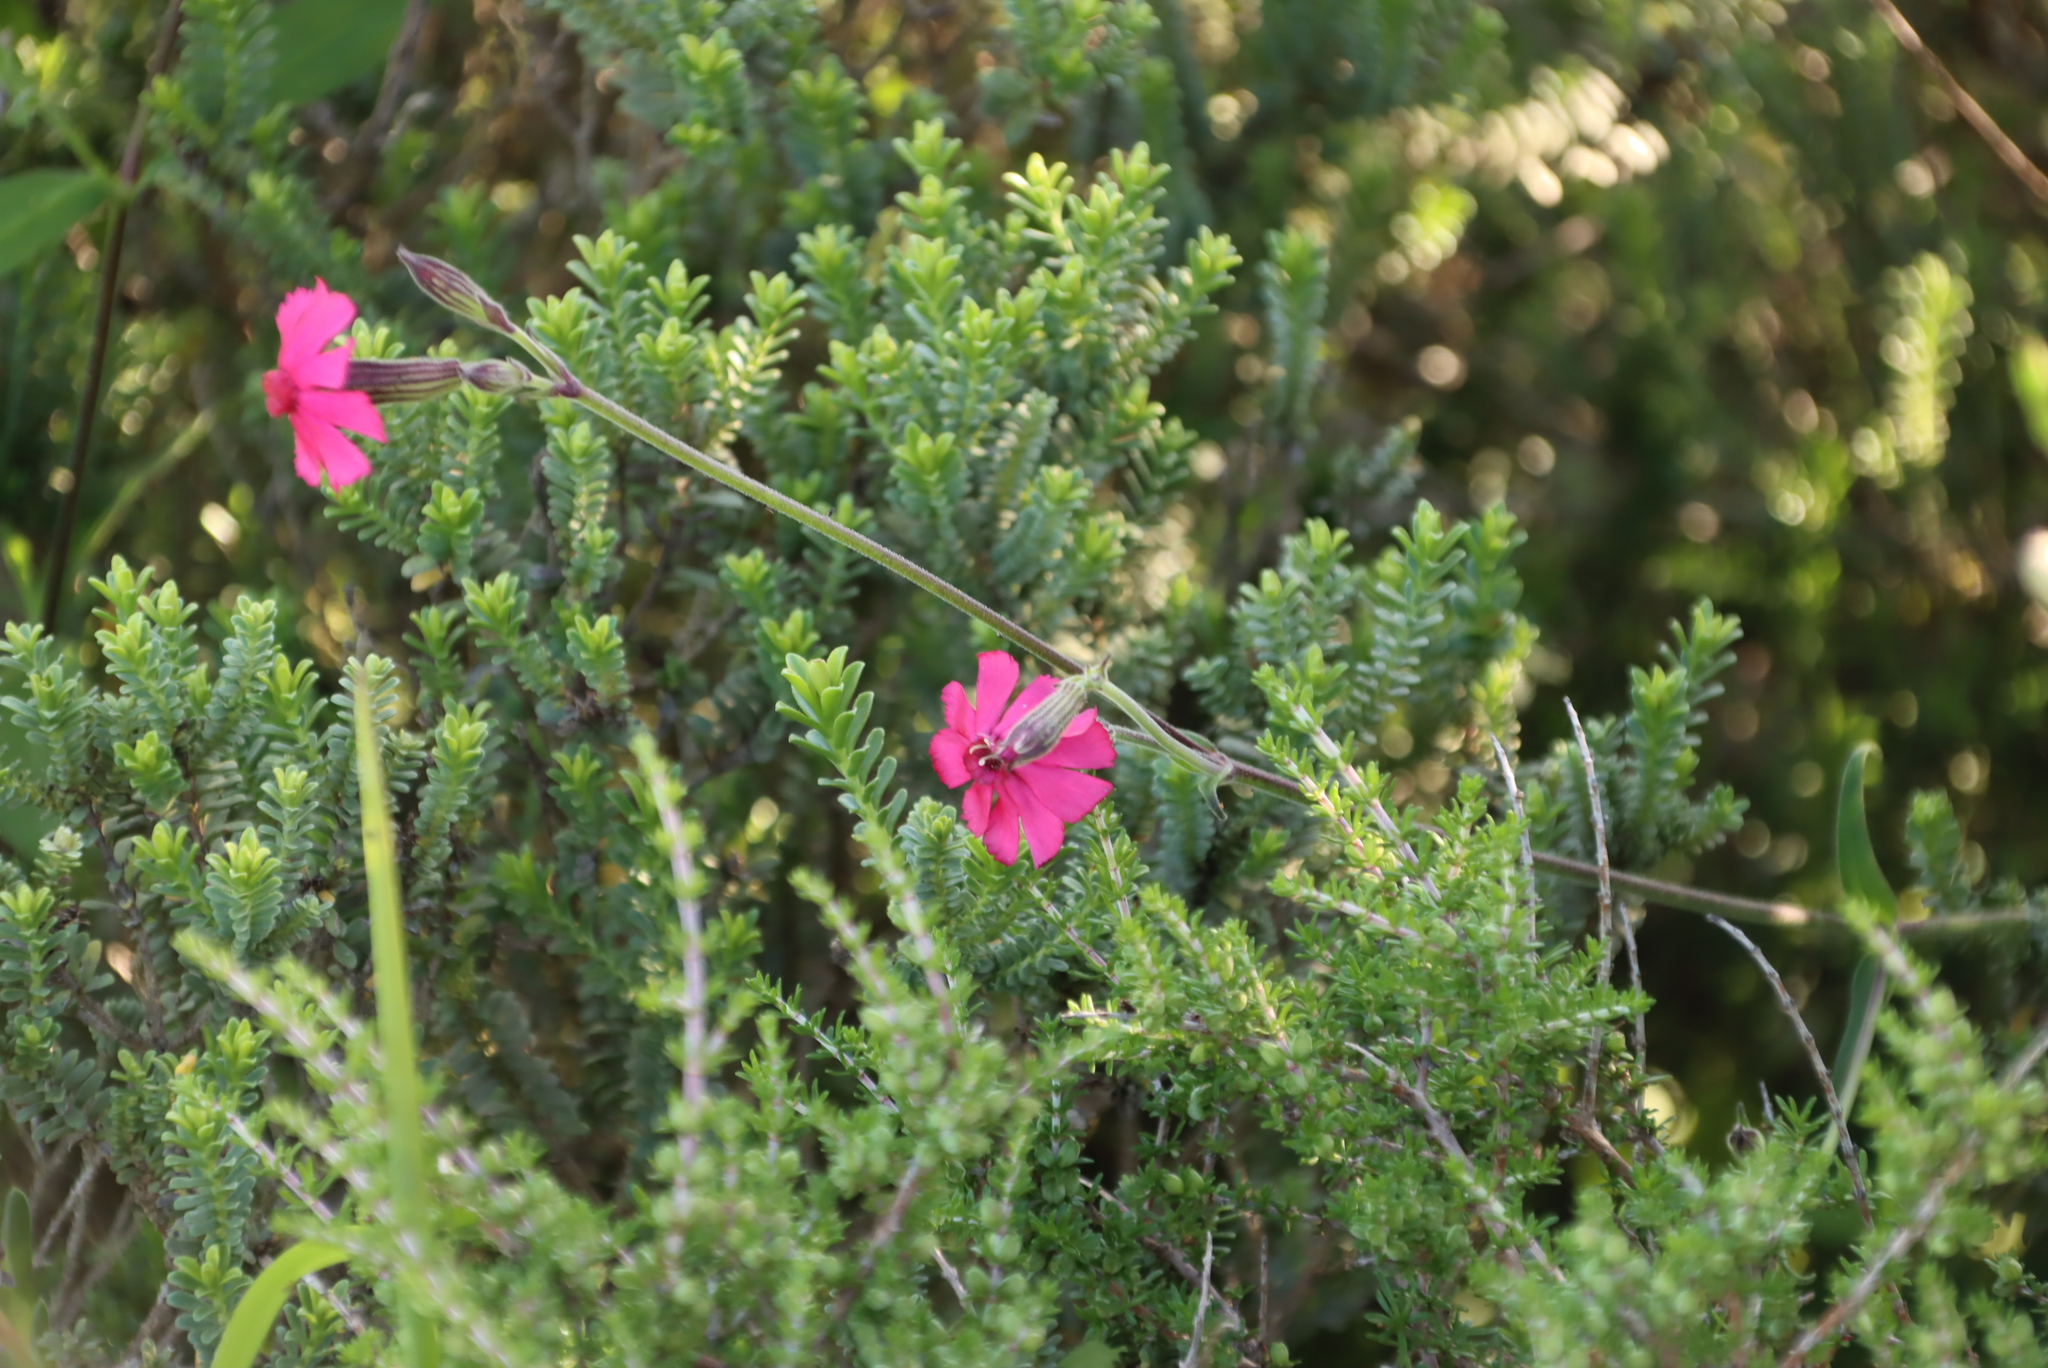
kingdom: Plantae
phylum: Tracheophyta
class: Magnoliopsida
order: Caryophyllales
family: Caryophyllaceae
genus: Silene
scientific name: Silene ornata
